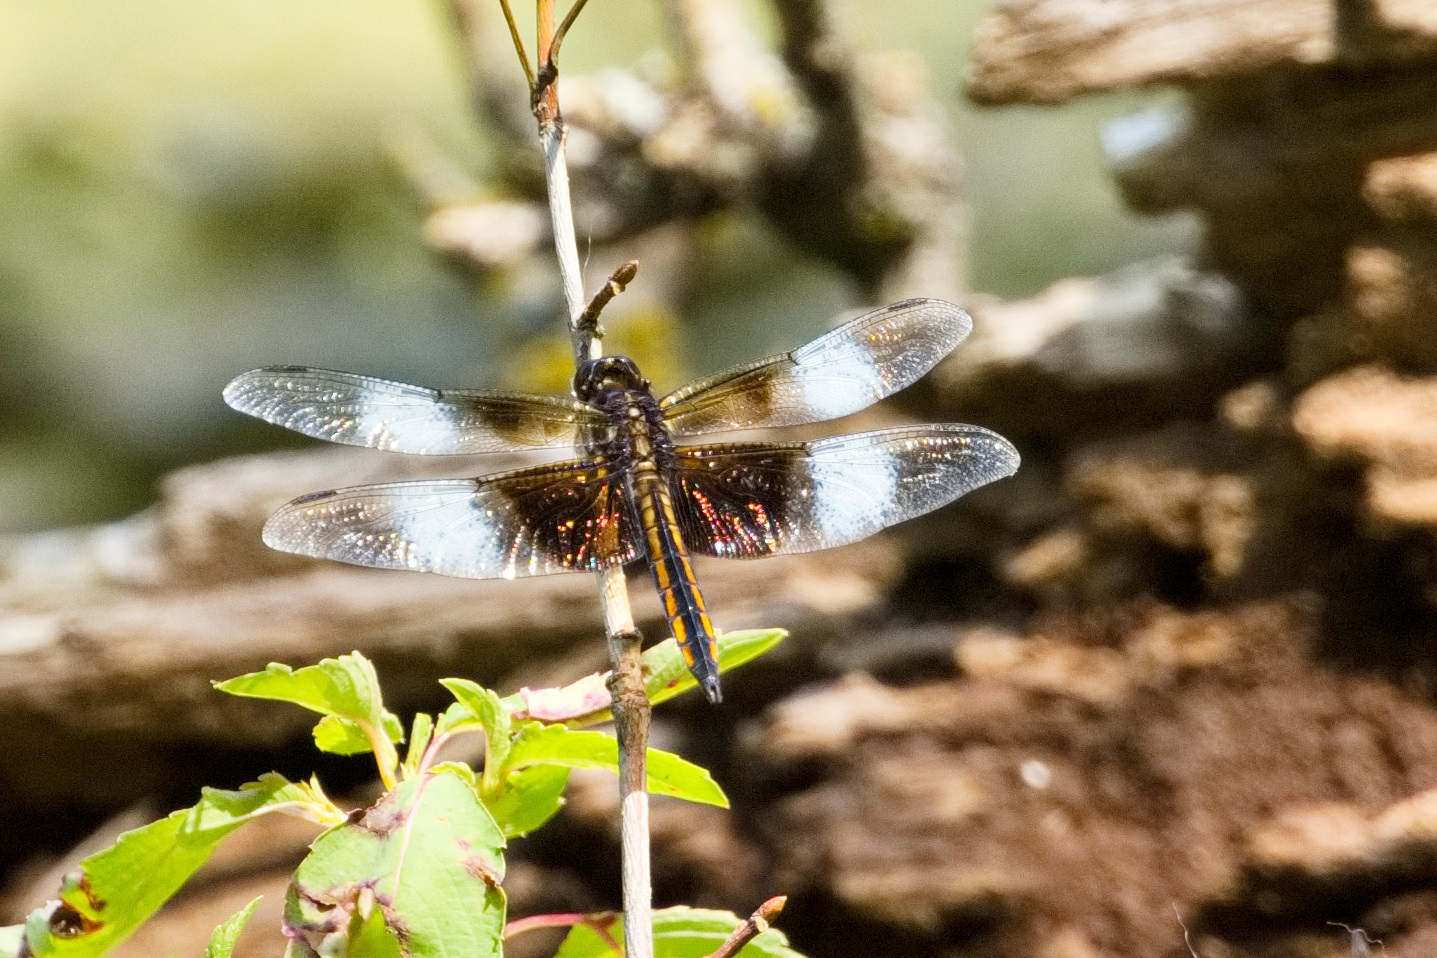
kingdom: Animalia
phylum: Arthropoda
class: Insecta
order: Odonata
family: Libellulidae
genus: Libellula
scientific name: Libellula luctuosa
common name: Widow skimmer
